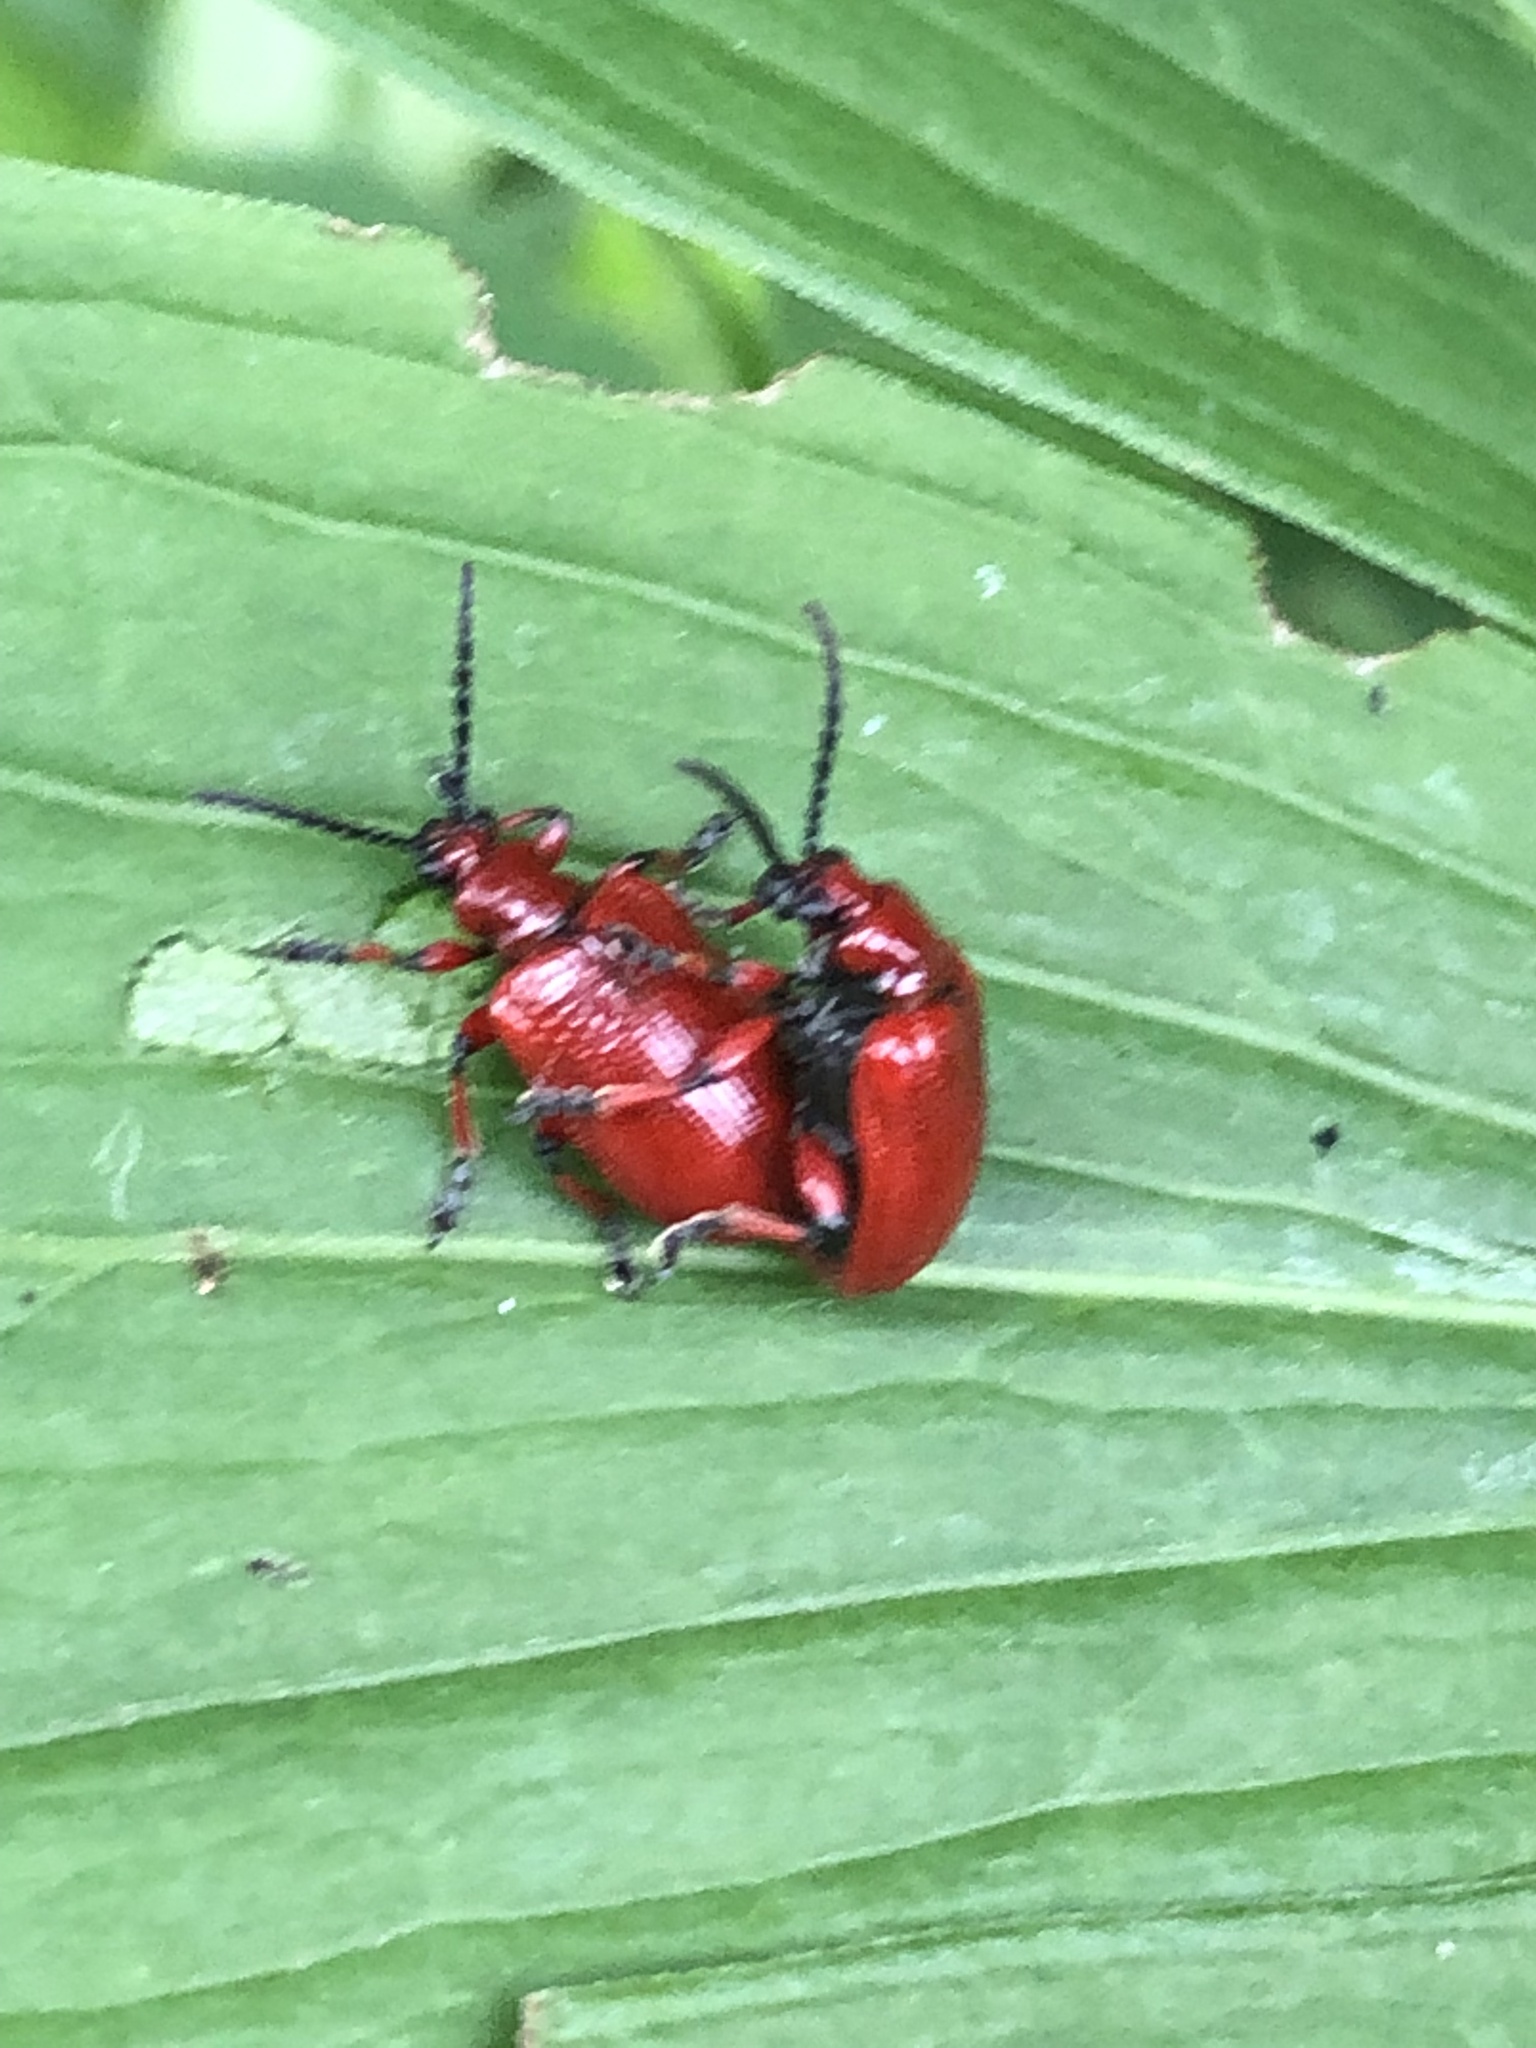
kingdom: Animalia
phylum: Arthropoda
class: Insecta
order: Coleoptera
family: Chrysomelidae
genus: Lilioceris
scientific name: Lilioceris merdigera
